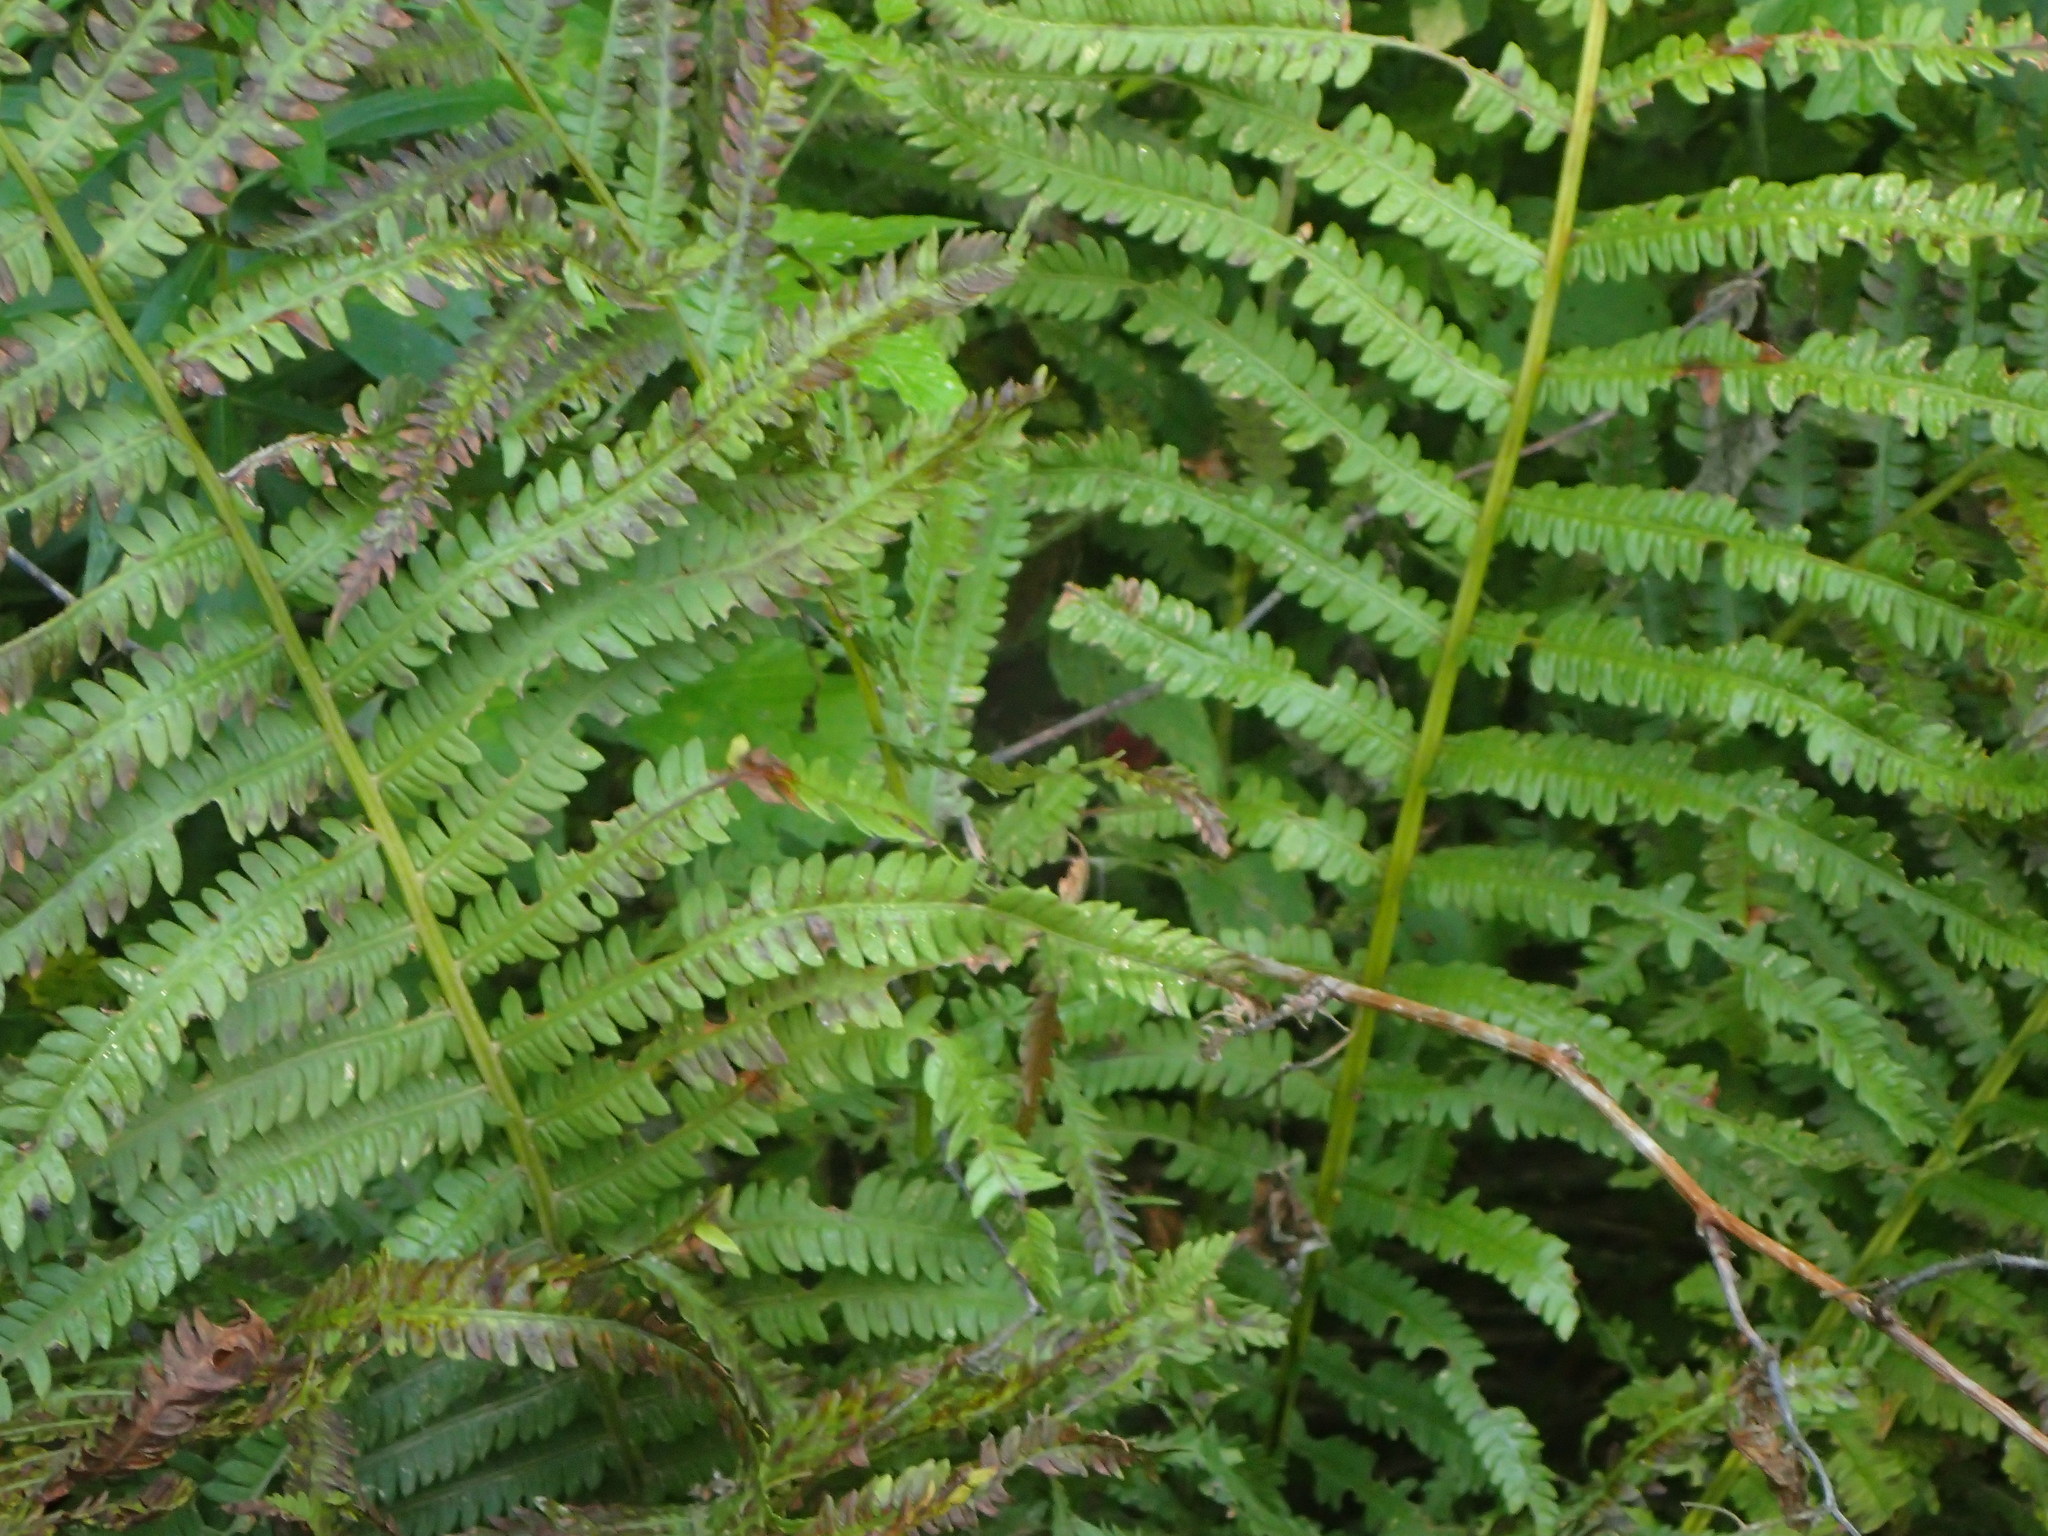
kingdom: Plantae
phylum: Tracheophyta
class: Polypodiopsida
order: Polypodiales
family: Onocleaceae
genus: Matteuccia
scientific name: Matteuccia struthiopteris
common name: Ostrich fern
